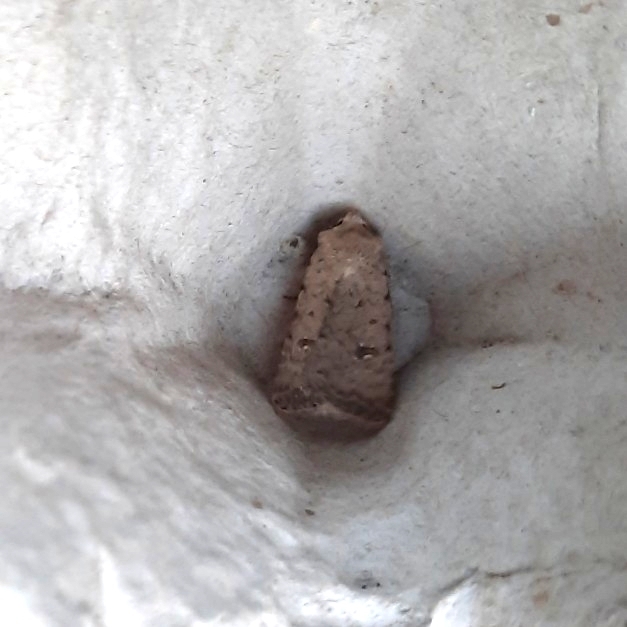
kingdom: Animalia
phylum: Arthropoda
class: Insecta
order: Lepidoptera
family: Noctuidae
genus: Caradrina
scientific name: Caradrina clavipalpis
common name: Pale mottled willow
